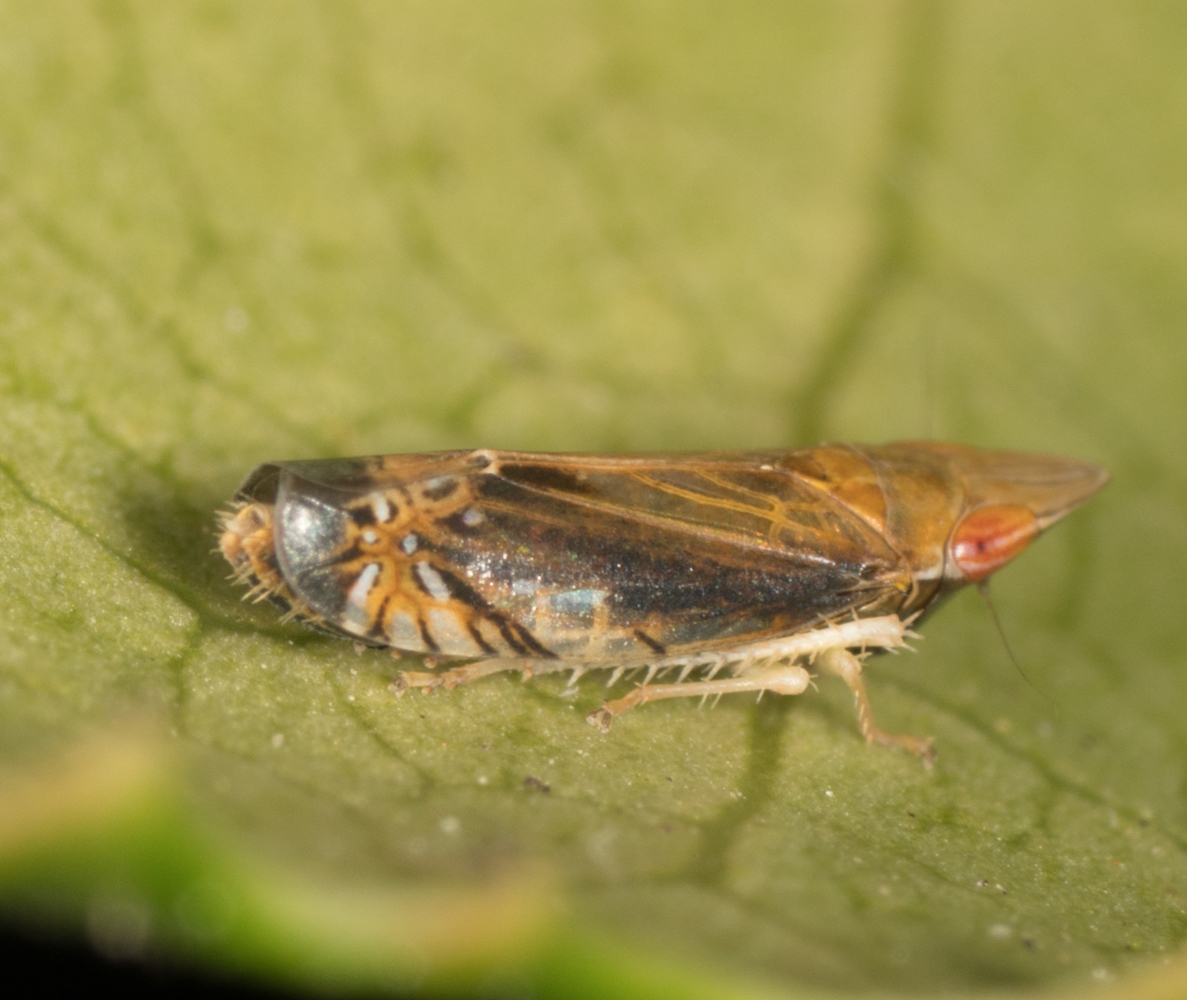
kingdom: Animalia
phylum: Arthropoda
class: Insecta
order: Hemiptera
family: Cicadellidae
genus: Scaphytopius
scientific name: Scaphytopius majestus
